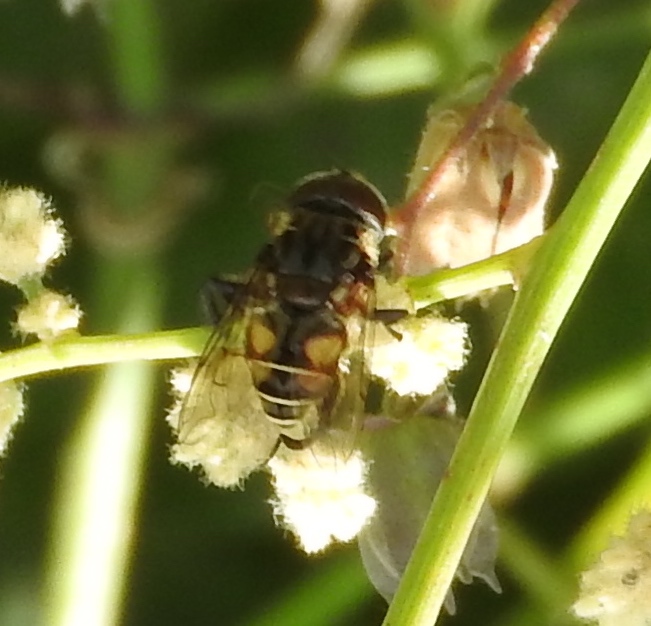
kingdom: Animalia
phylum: Arthropoda
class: Insecta
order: Diptera
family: Syrphidae
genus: Palpada
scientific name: Palpada furcata
